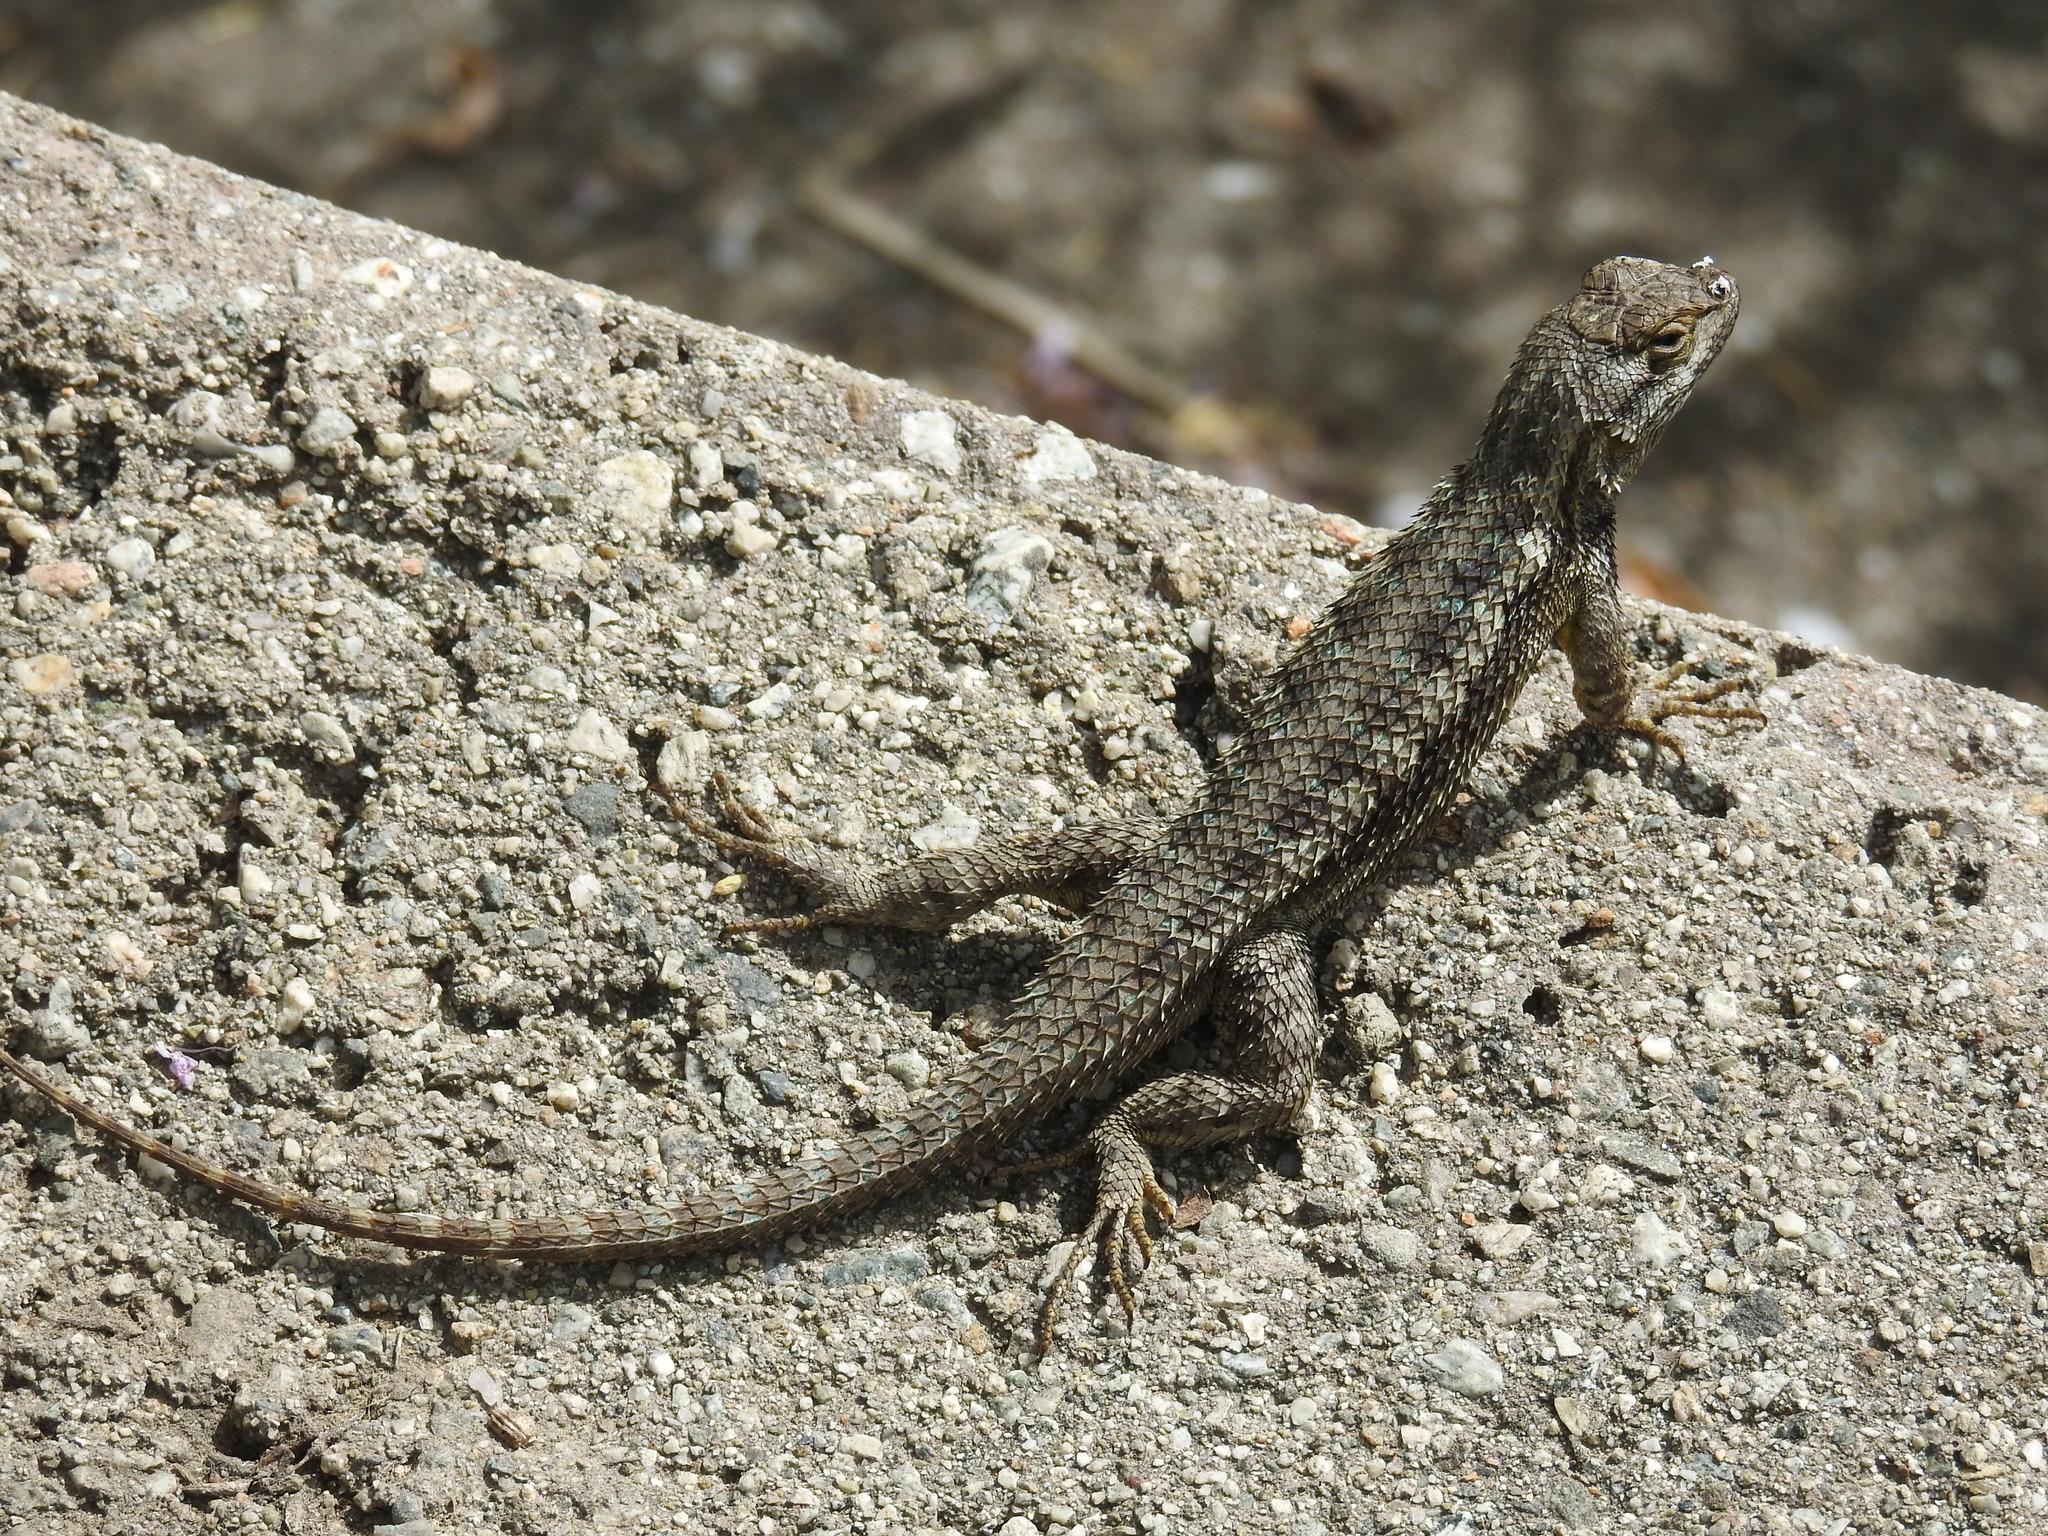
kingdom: Animalia
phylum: Chordata
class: Squamata
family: Phrynosomatidae
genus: Sceloporus
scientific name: Sceloporus occidentalis
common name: Western fence lizard
